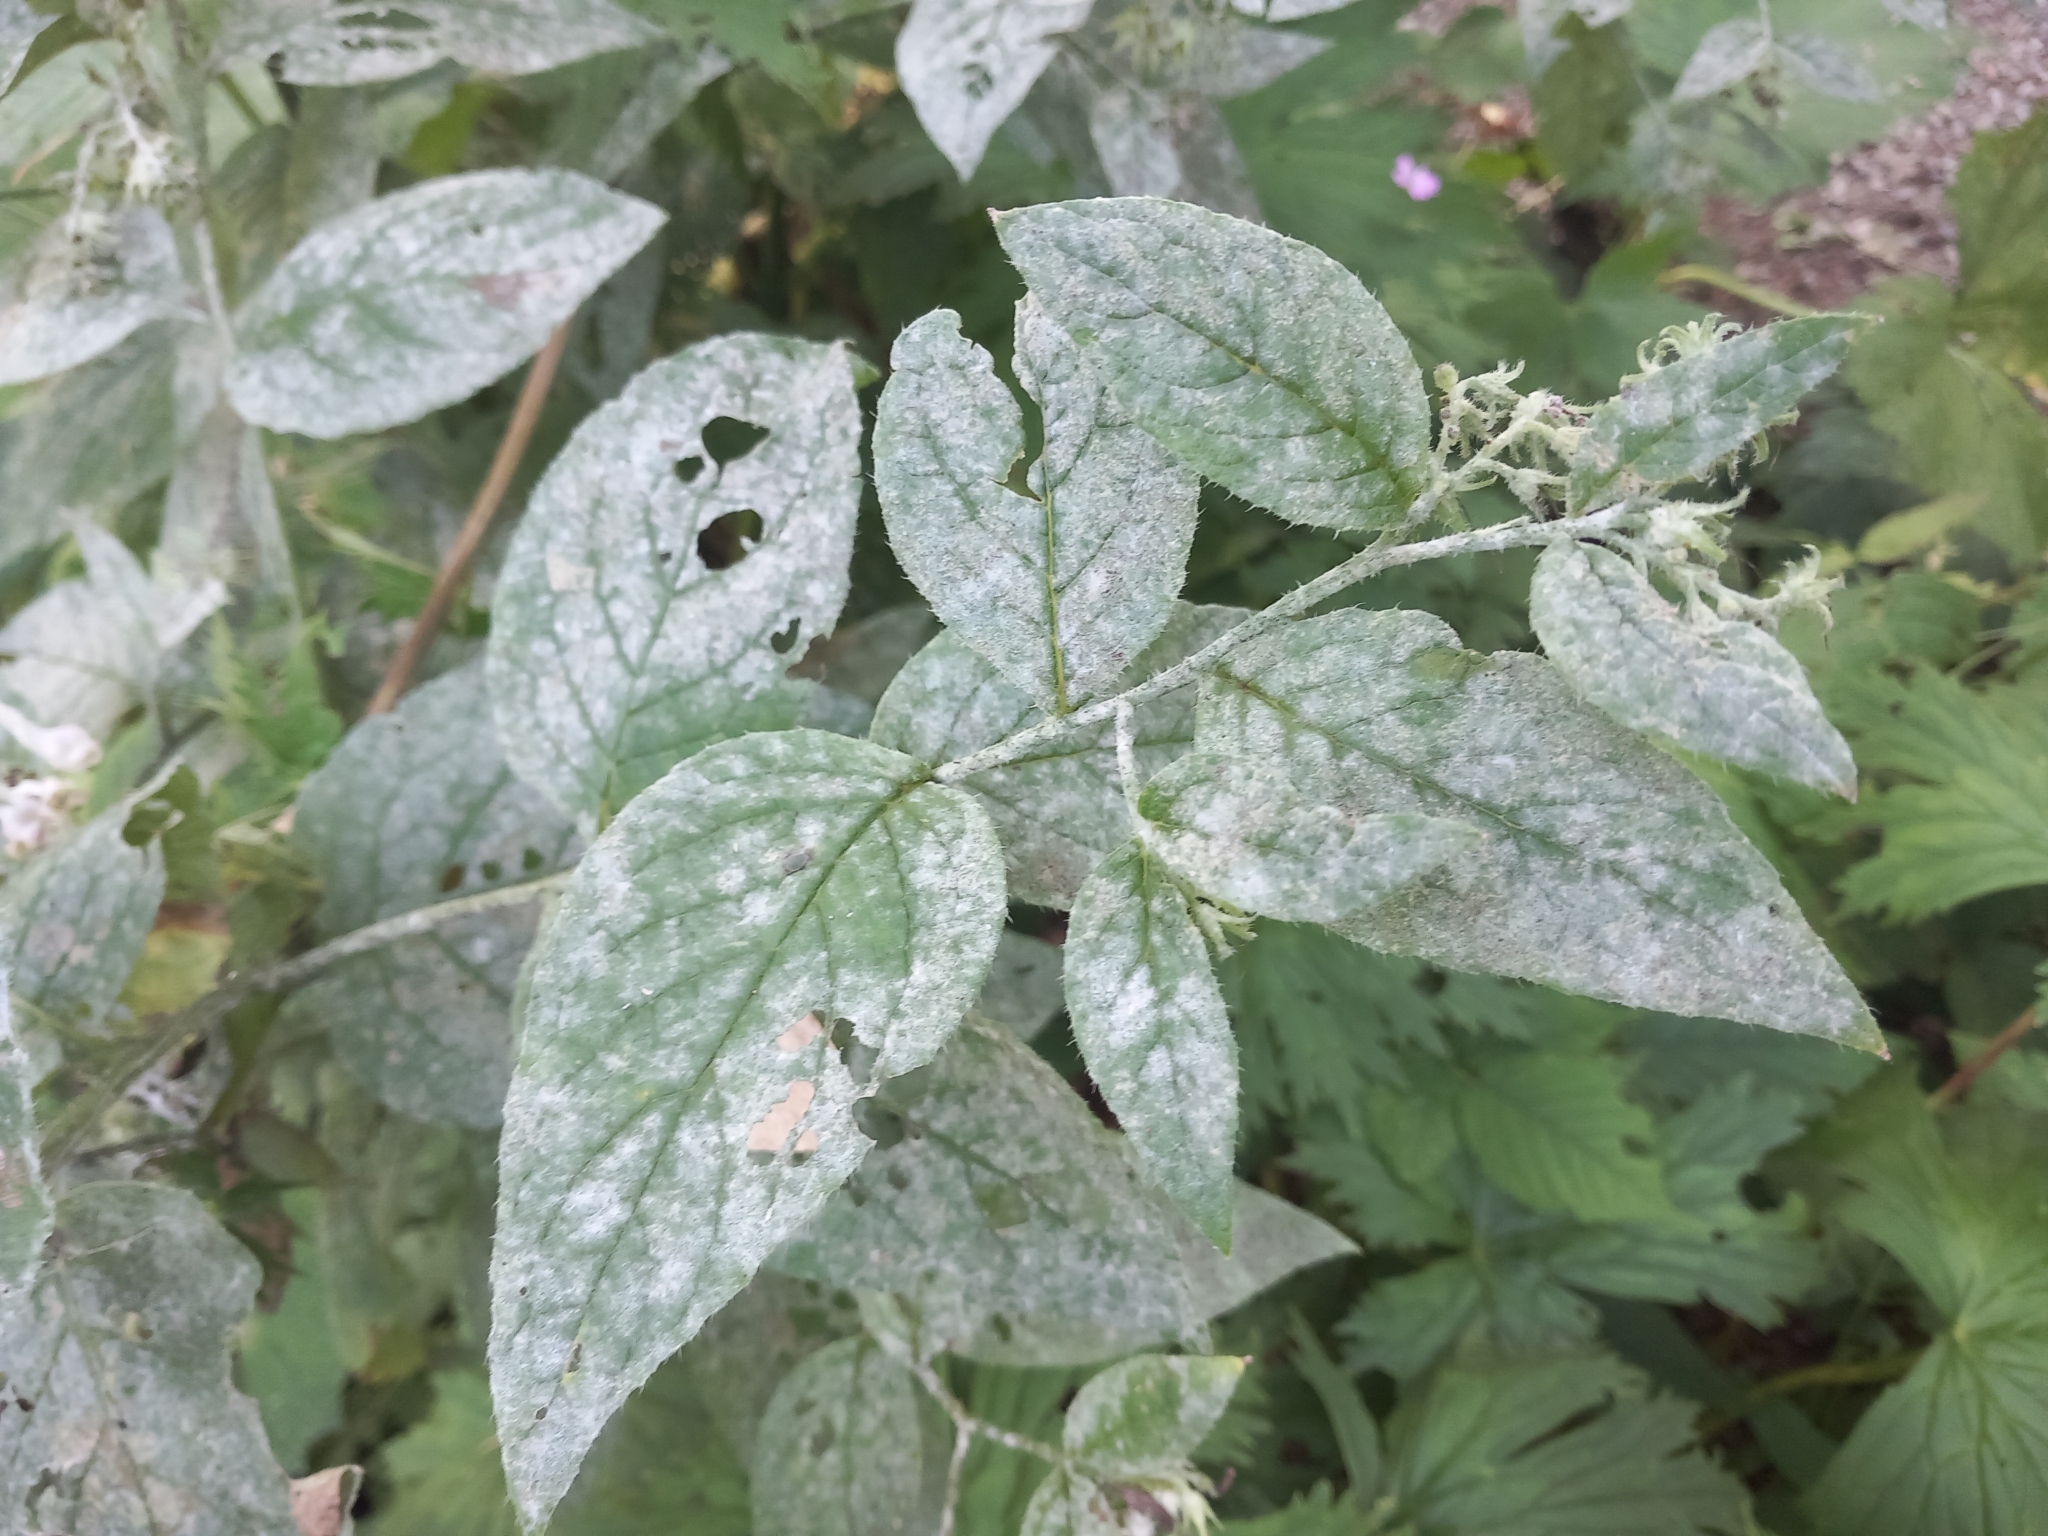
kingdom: Plantae
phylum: Tracheophyta
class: Magnoliopsida
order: Ranunculales
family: Ranunculaceae
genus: Aconitum
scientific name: Aconitum orientale
